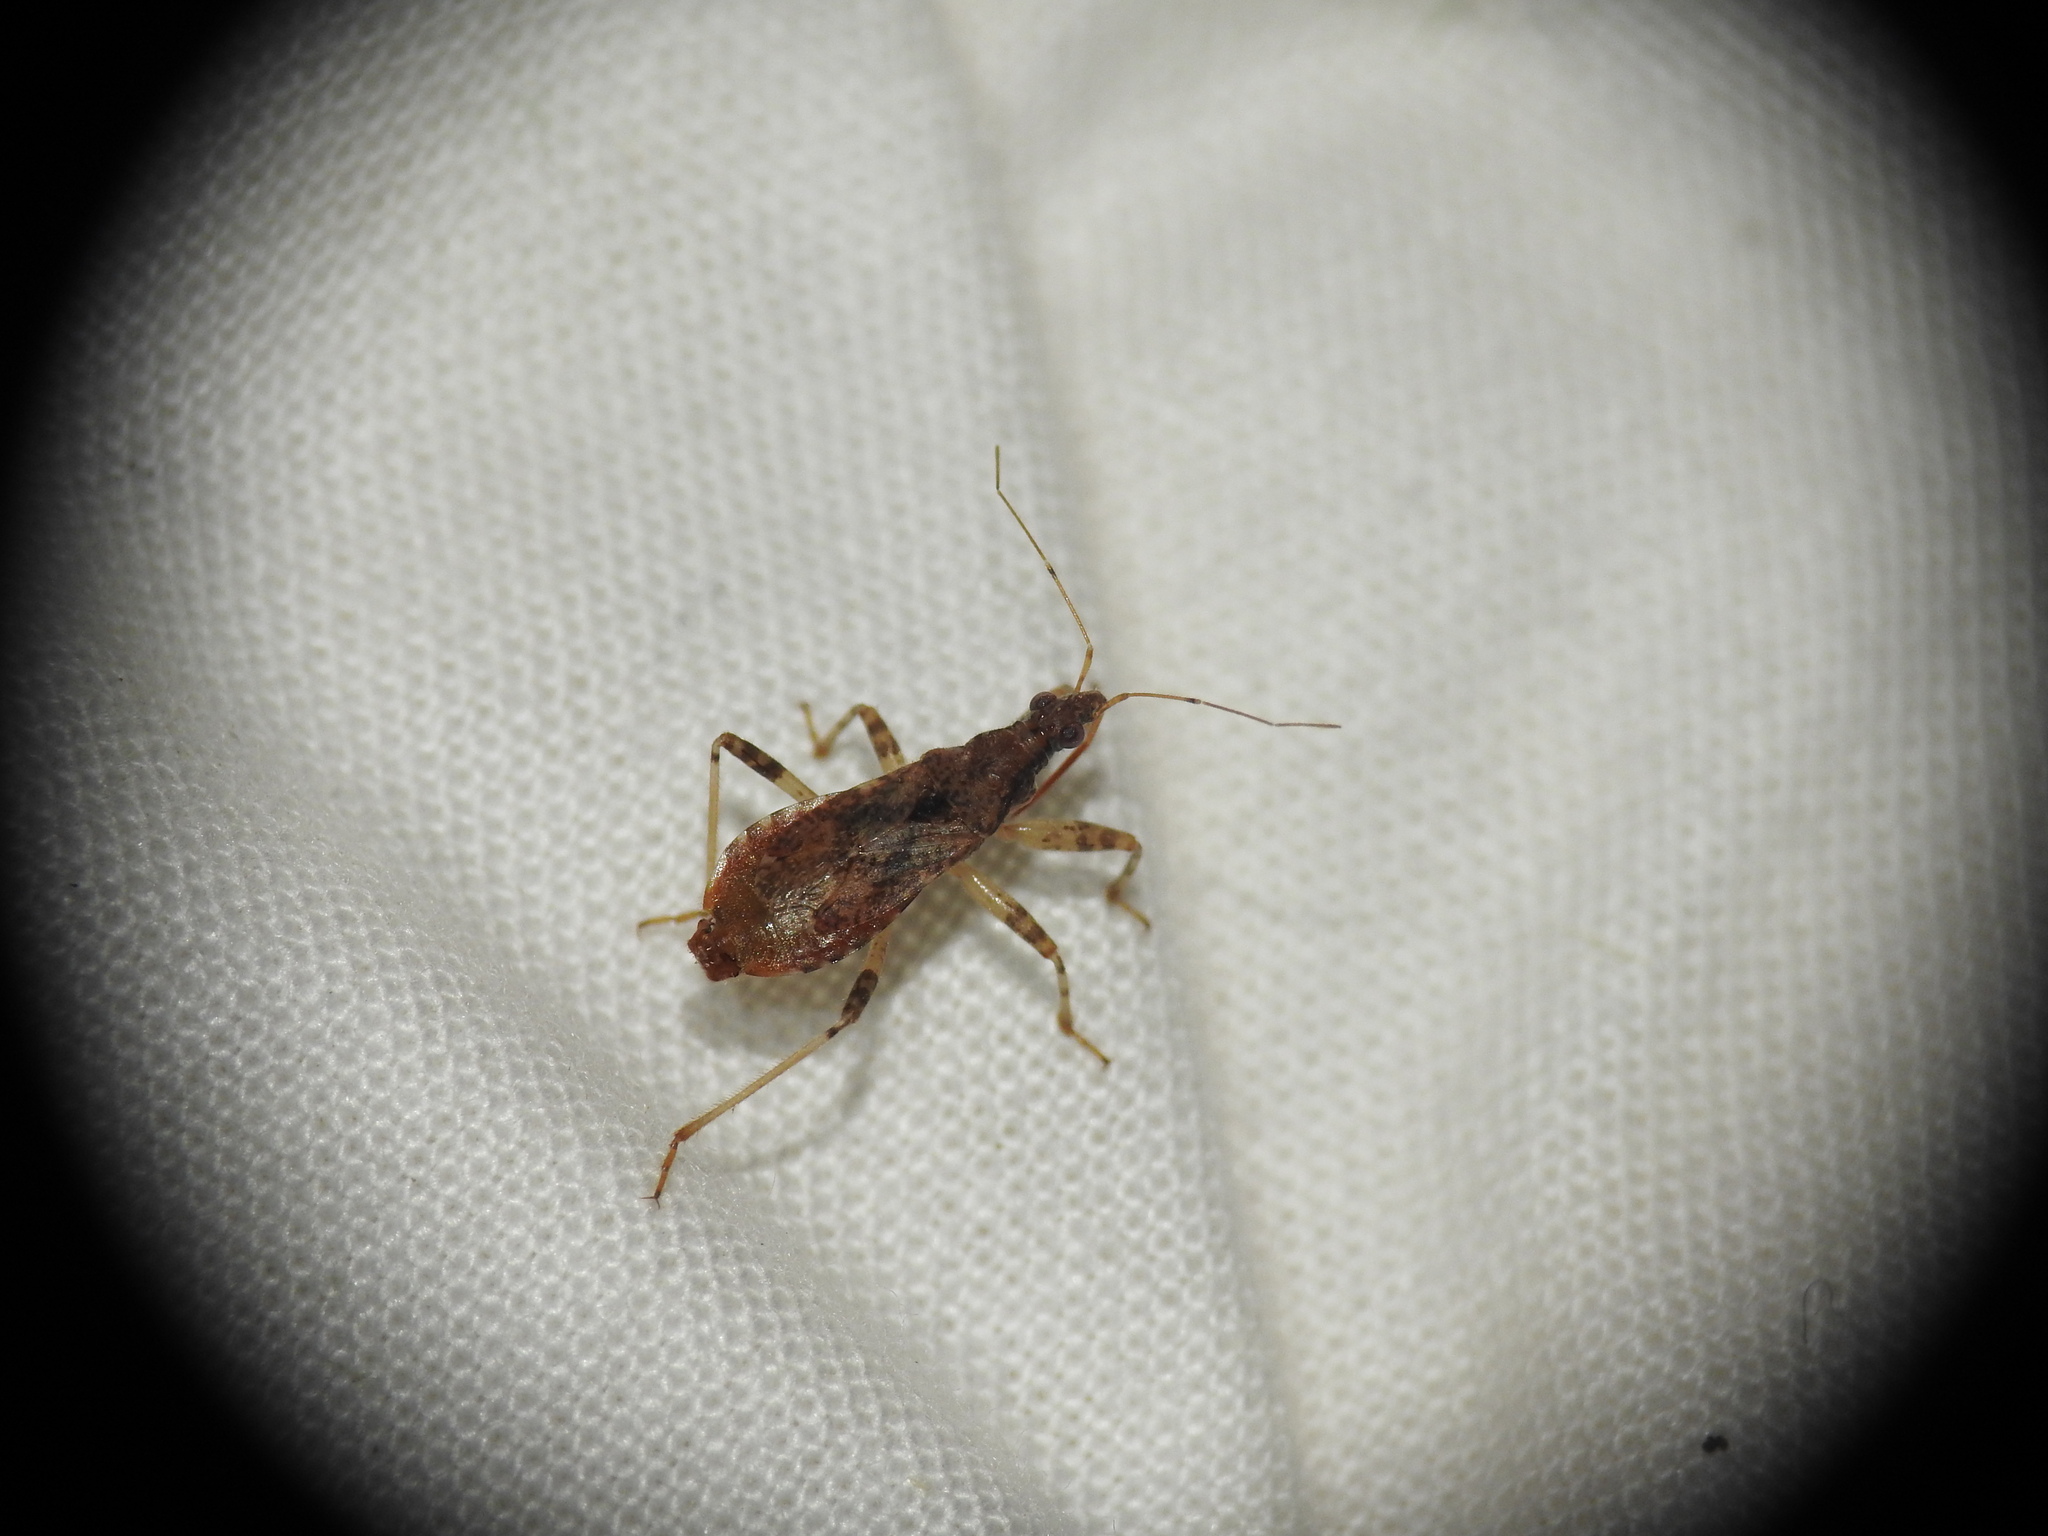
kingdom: Animalia
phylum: Arthropoda
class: Insecta
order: Hemiptera
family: Nabidae
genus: Himacerus
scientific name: Himacerus mirmicoides
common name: Ant damsel bug
